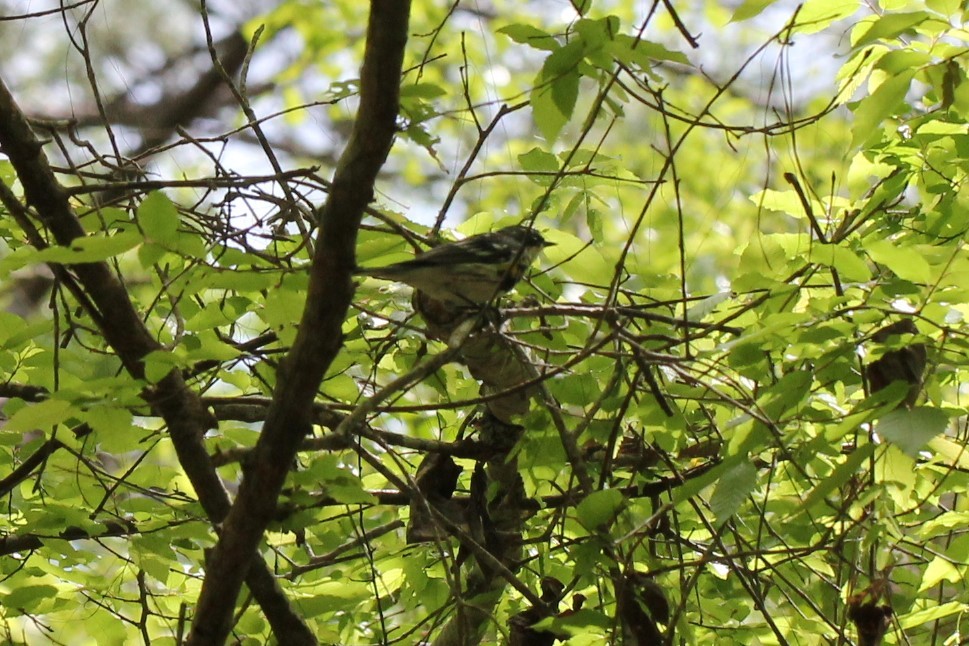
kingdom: Animalia
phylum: Chordata
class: Aves
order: Passeriformes
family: Parulidae
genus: Setophaga
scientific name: Setophaga coronata
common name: Myrtle warbler
